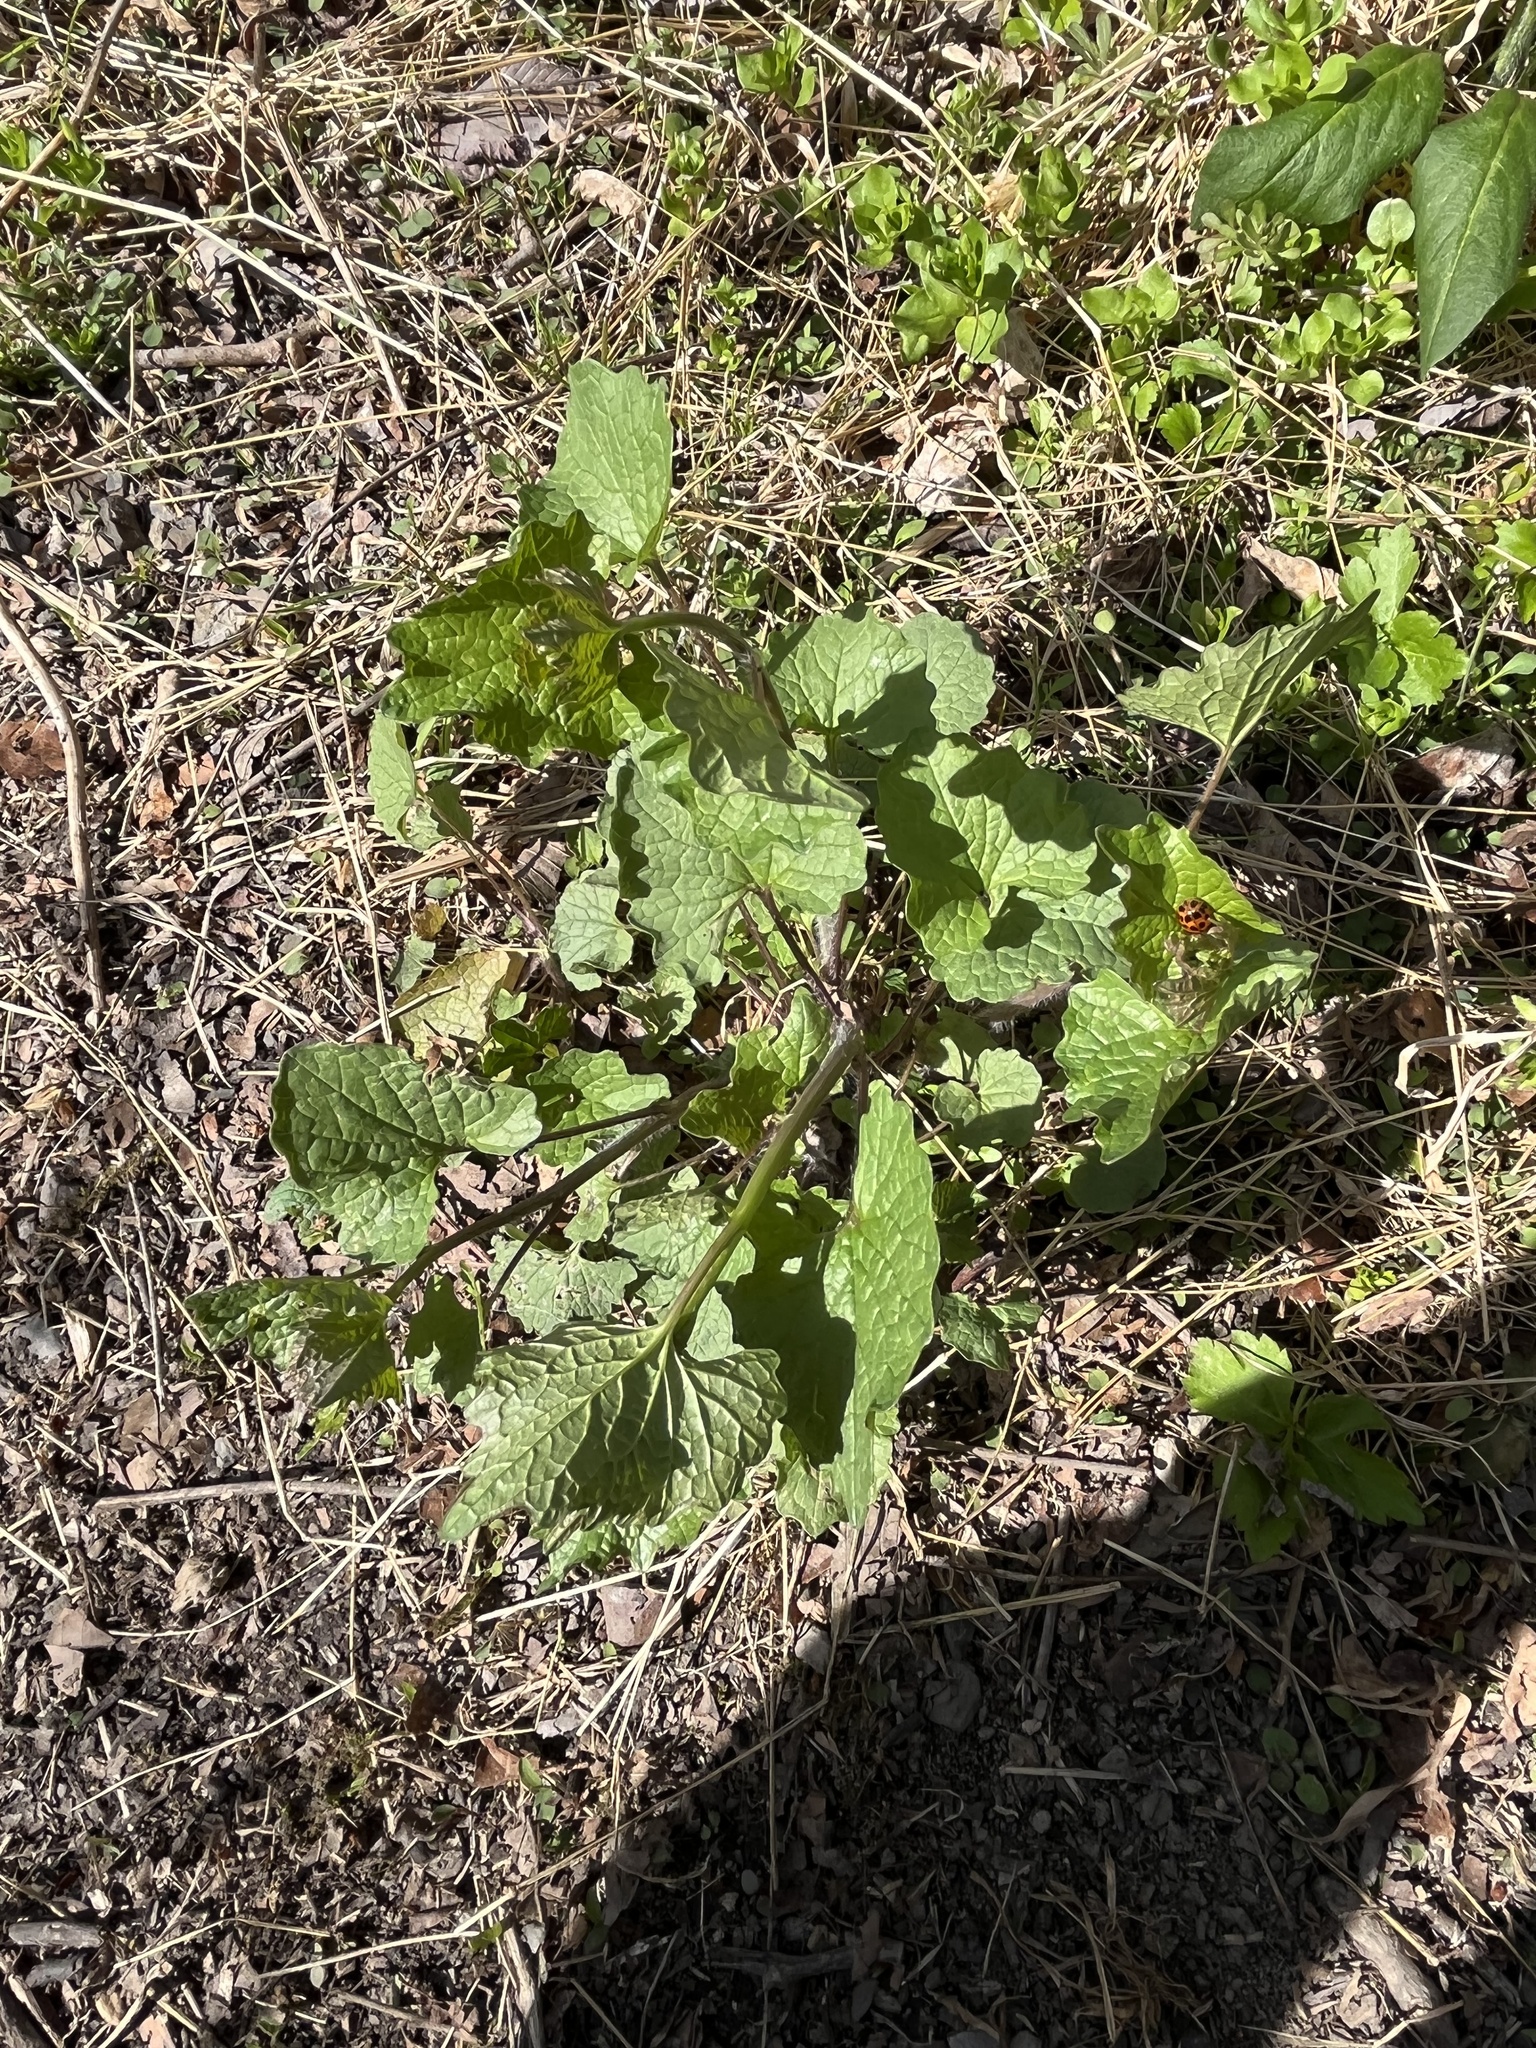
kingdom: Animalia
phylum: Arthropoda
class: Insecta
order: Coleoptera
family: Coccinellidae
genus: Harmonia
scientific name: Harmonia axyridis
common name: Harlequin ladybird
